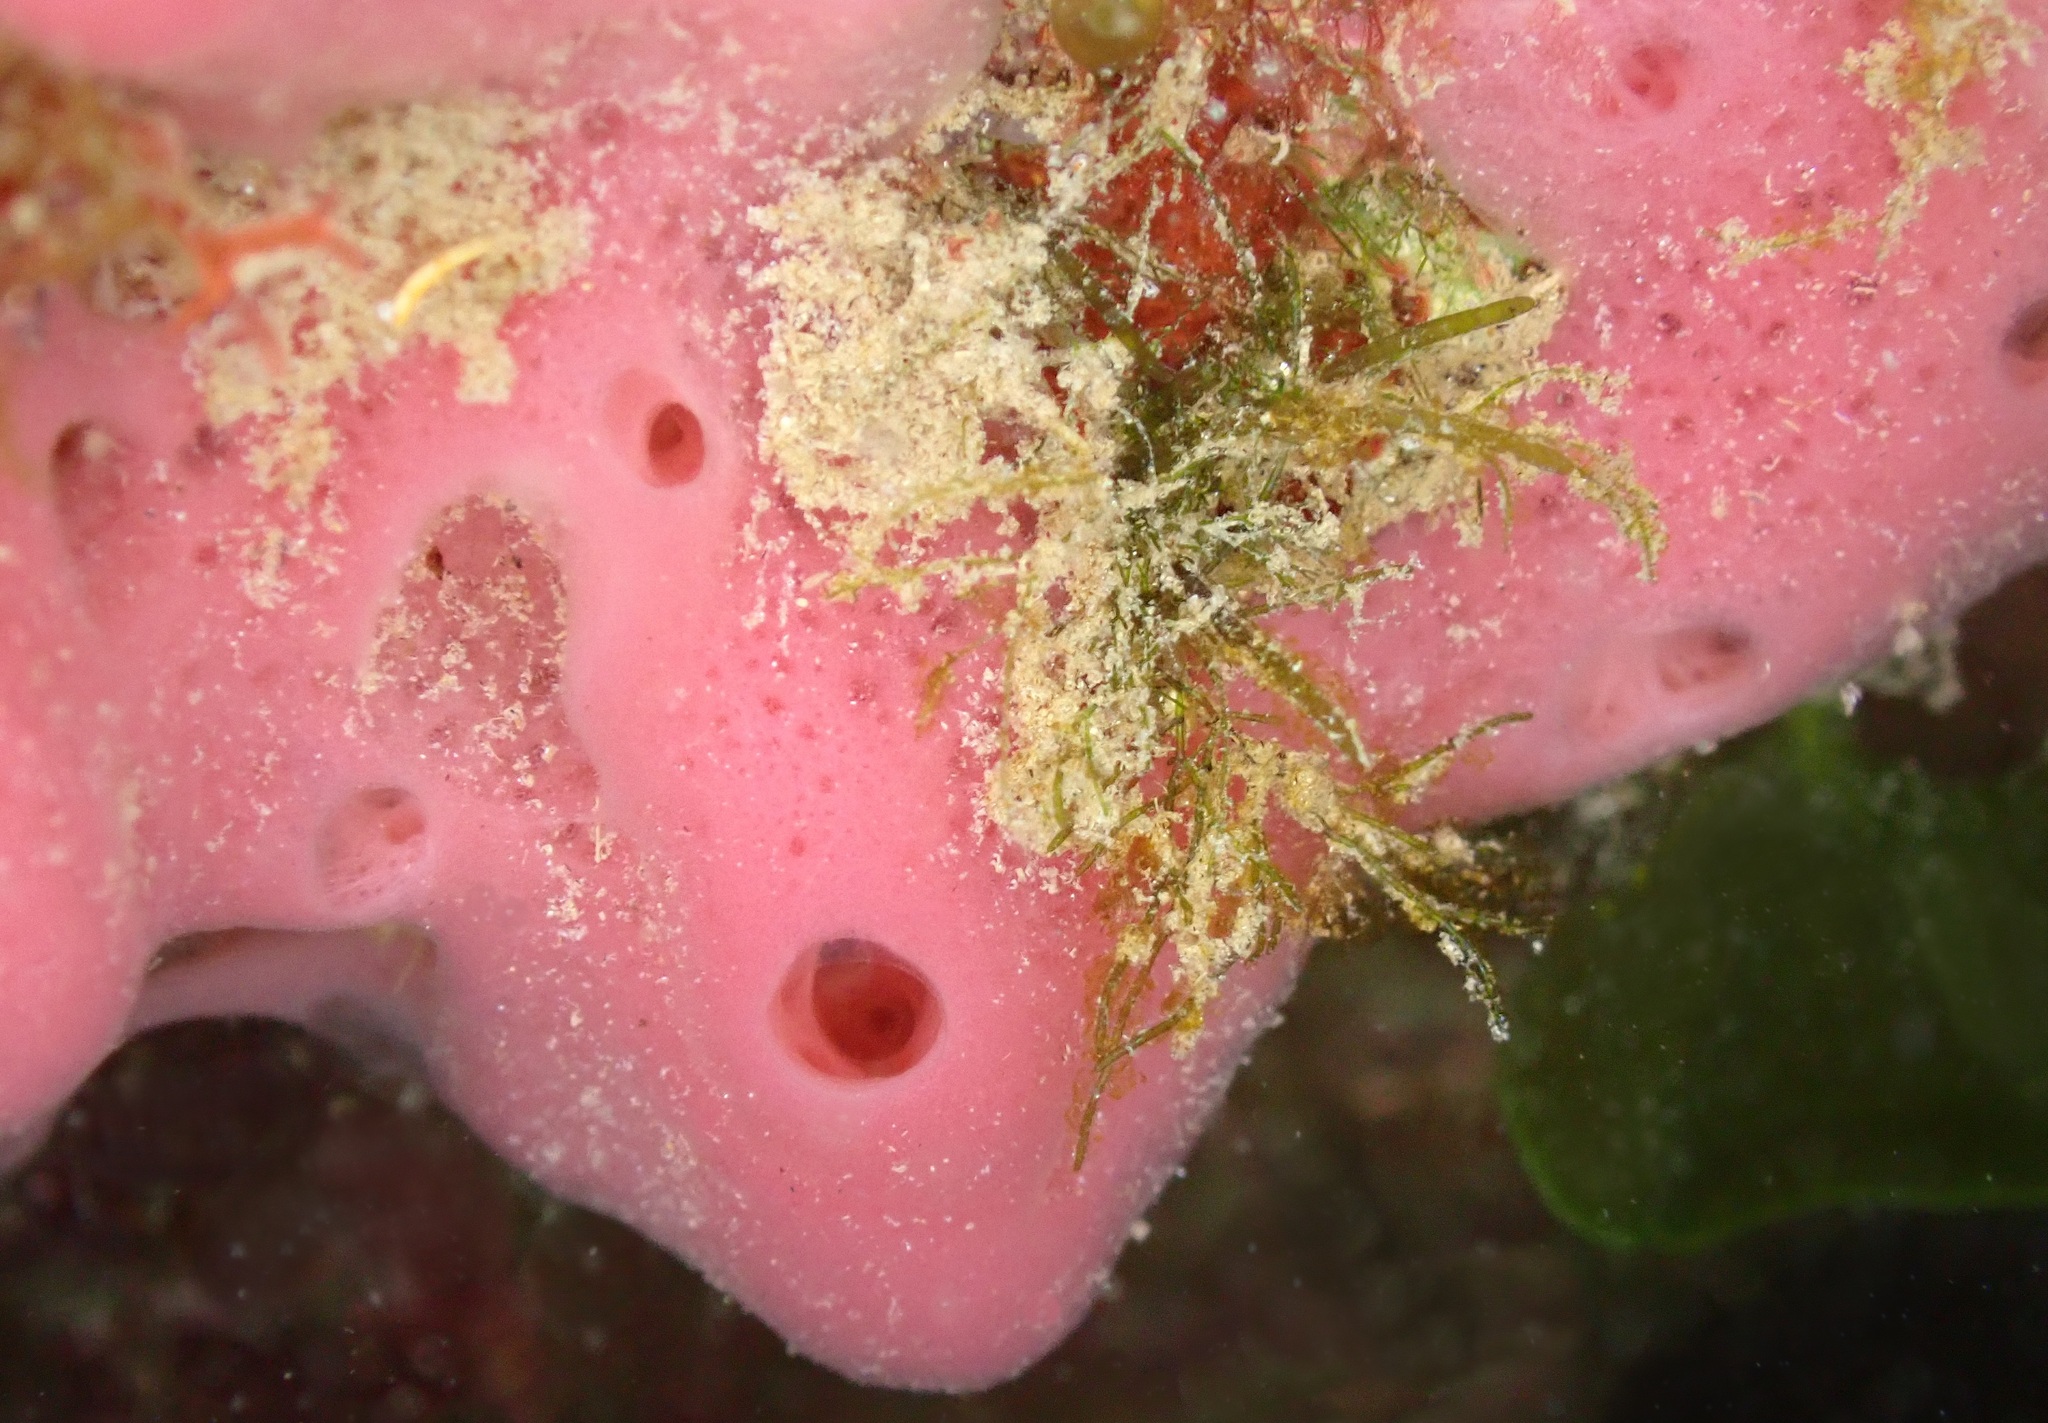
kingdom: Animalia
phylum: Porifera
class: Demospongiae
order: Haplosclerida
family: Chalinidae
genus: Haliclona
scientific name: Haliclona mediterranea
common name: Pink tube sponge
